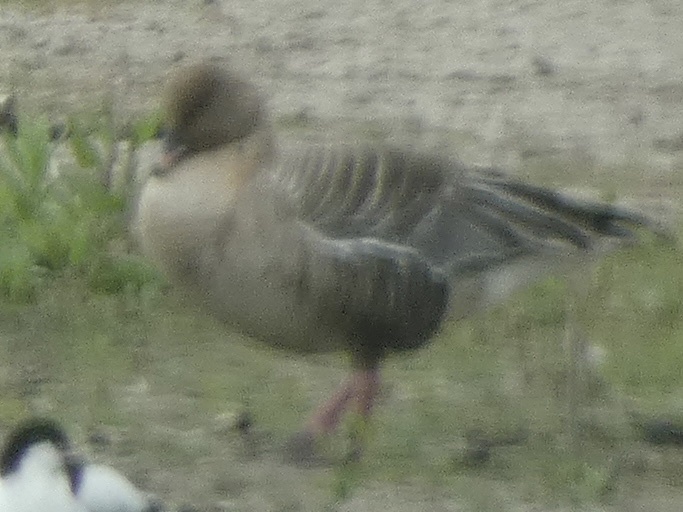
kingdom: Animalia
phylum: Chordata
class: Aves
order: Anseriformes
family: Anatidae
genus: Anser
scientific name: Anser brachyrhynchus
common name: Pink-footed goose
